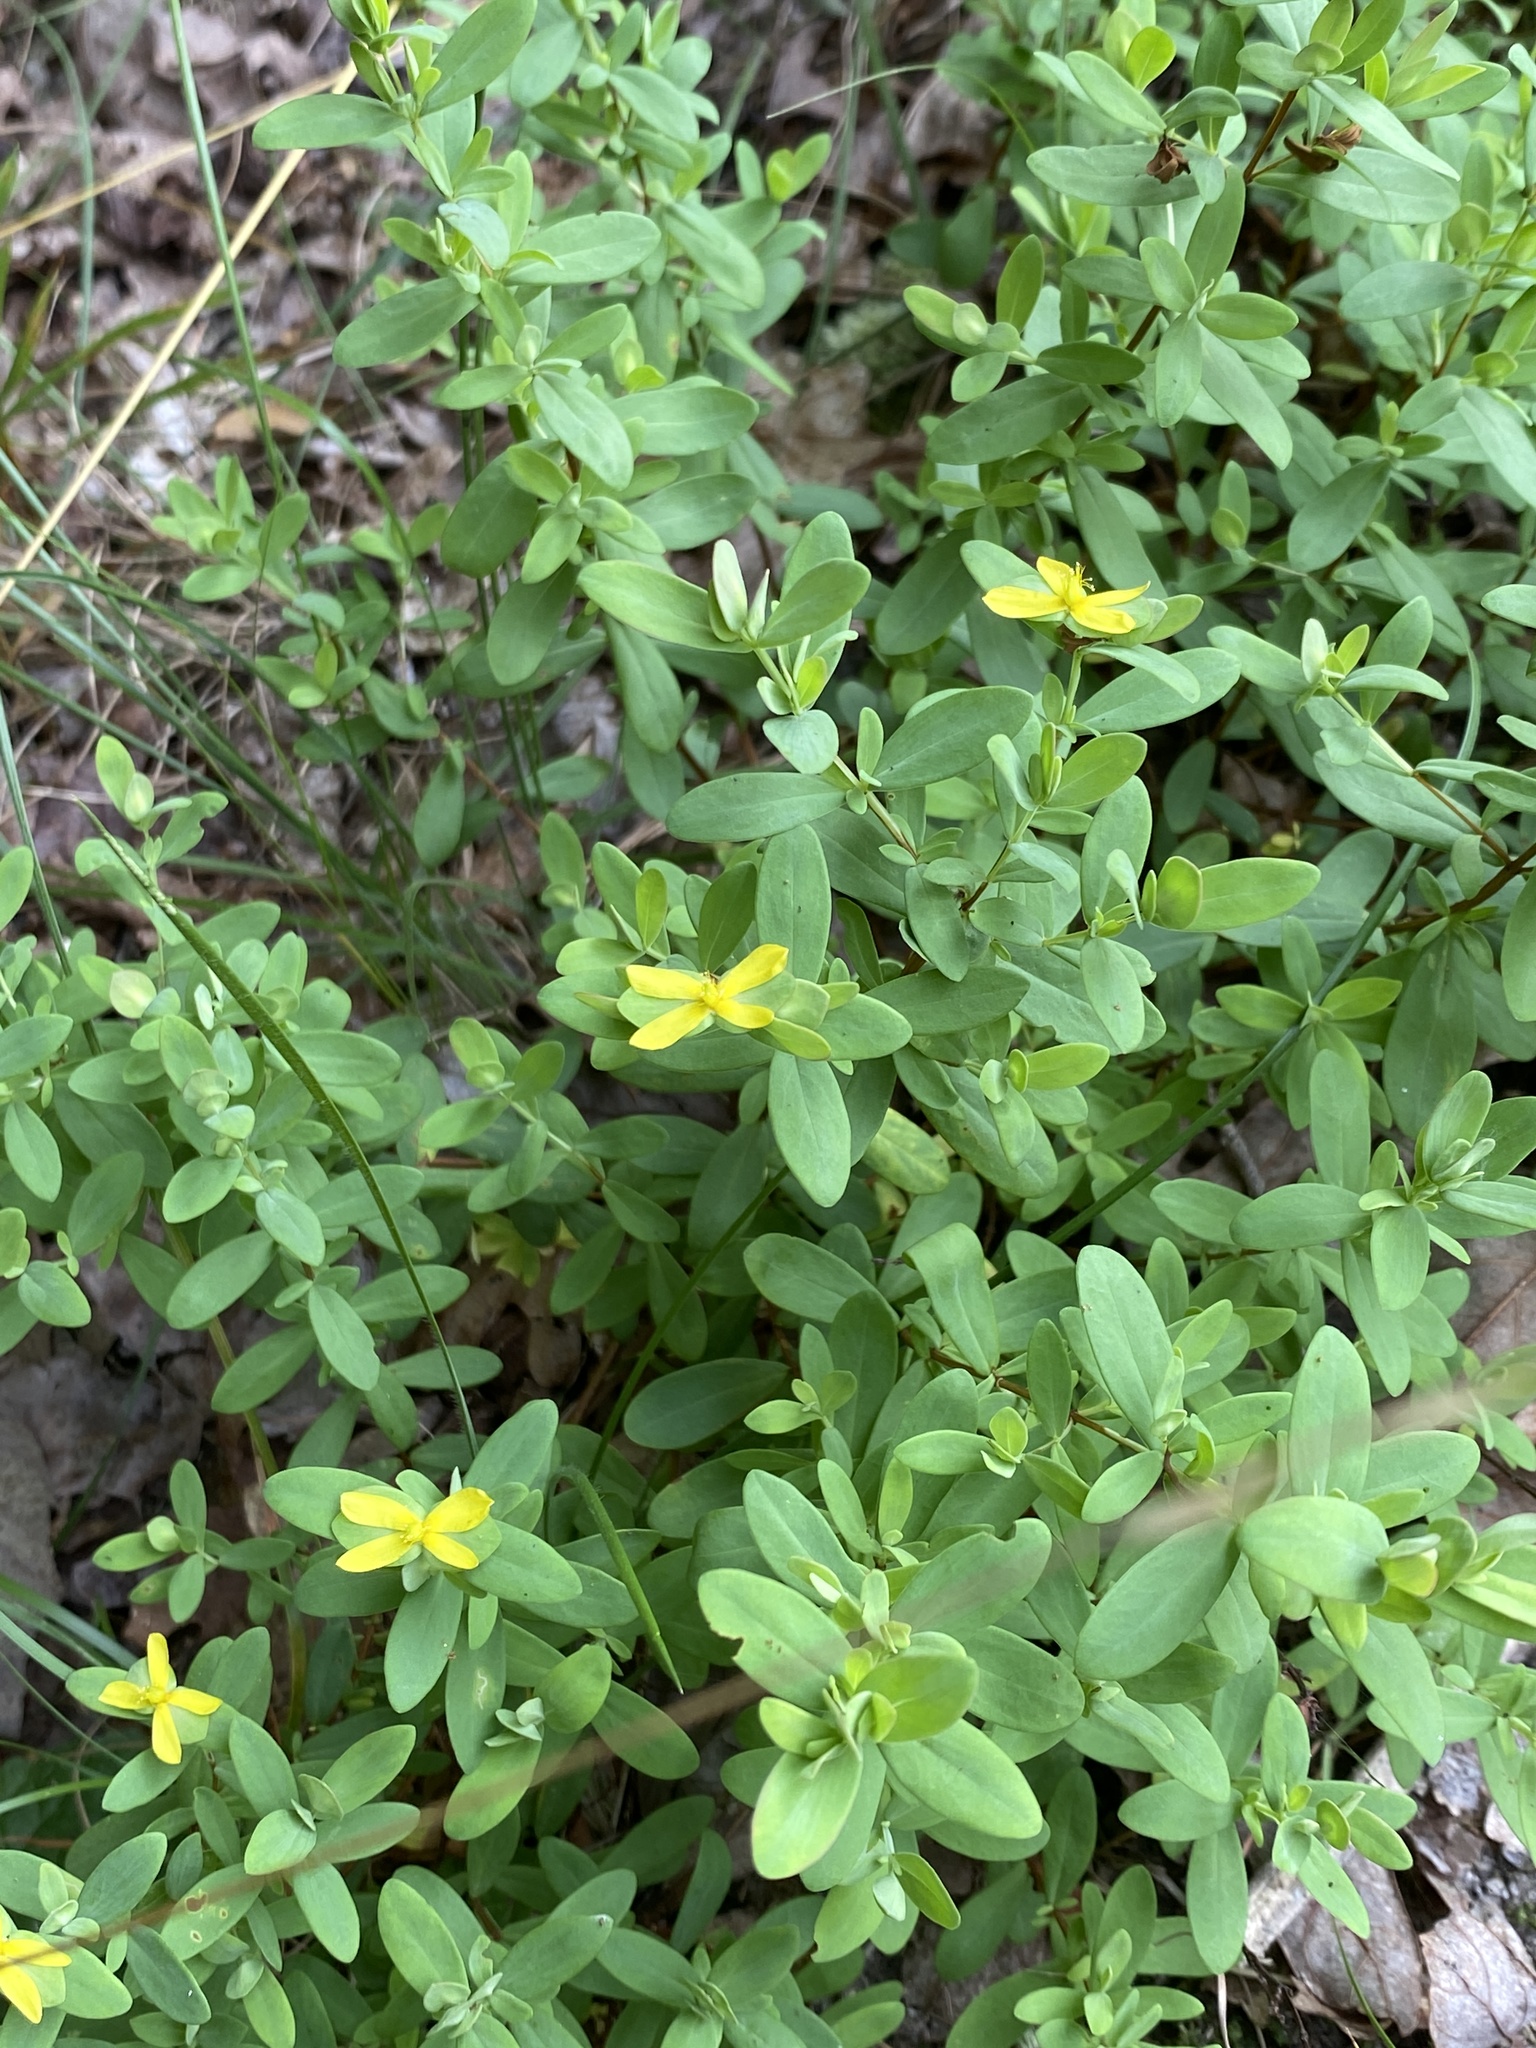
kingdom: Plantae
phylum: Tracheophyta
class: Magnoliopsida
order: Malpighiales
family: Hypericaceae
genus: Hypericum
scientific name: Hypericum hypericoides
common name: St. andrew's cross
